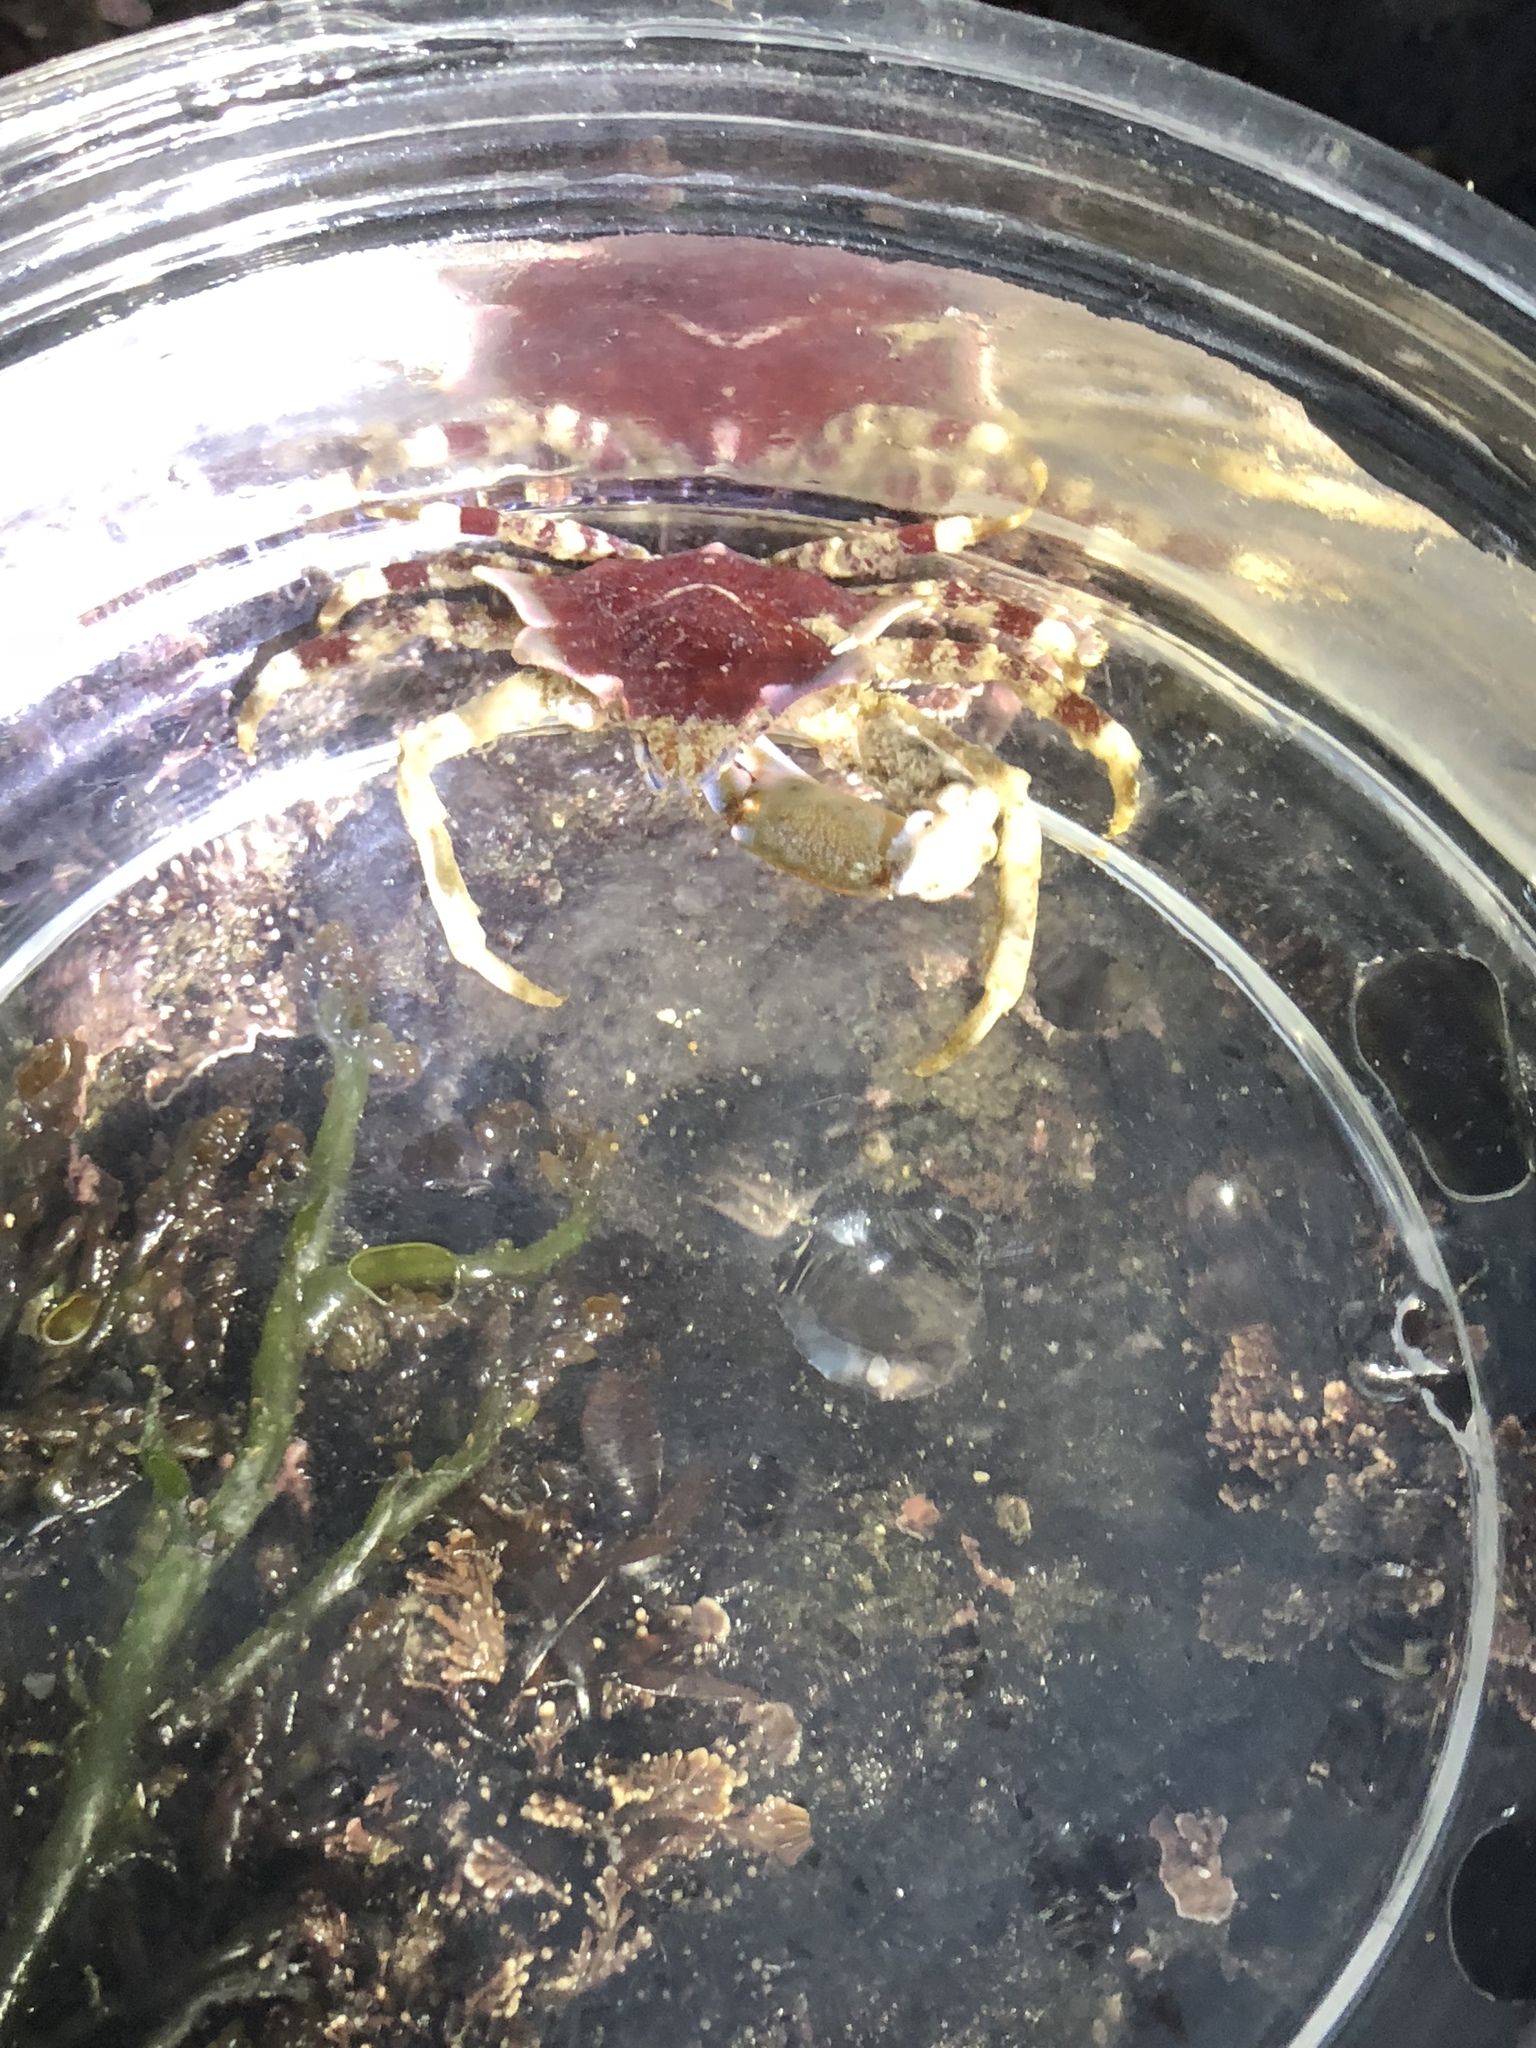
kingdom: Animalia
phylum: Arthropoda
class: Malacostraca
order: Decapoda
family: Epialtidae
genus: Pugettia
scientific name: Pugettia foliata
